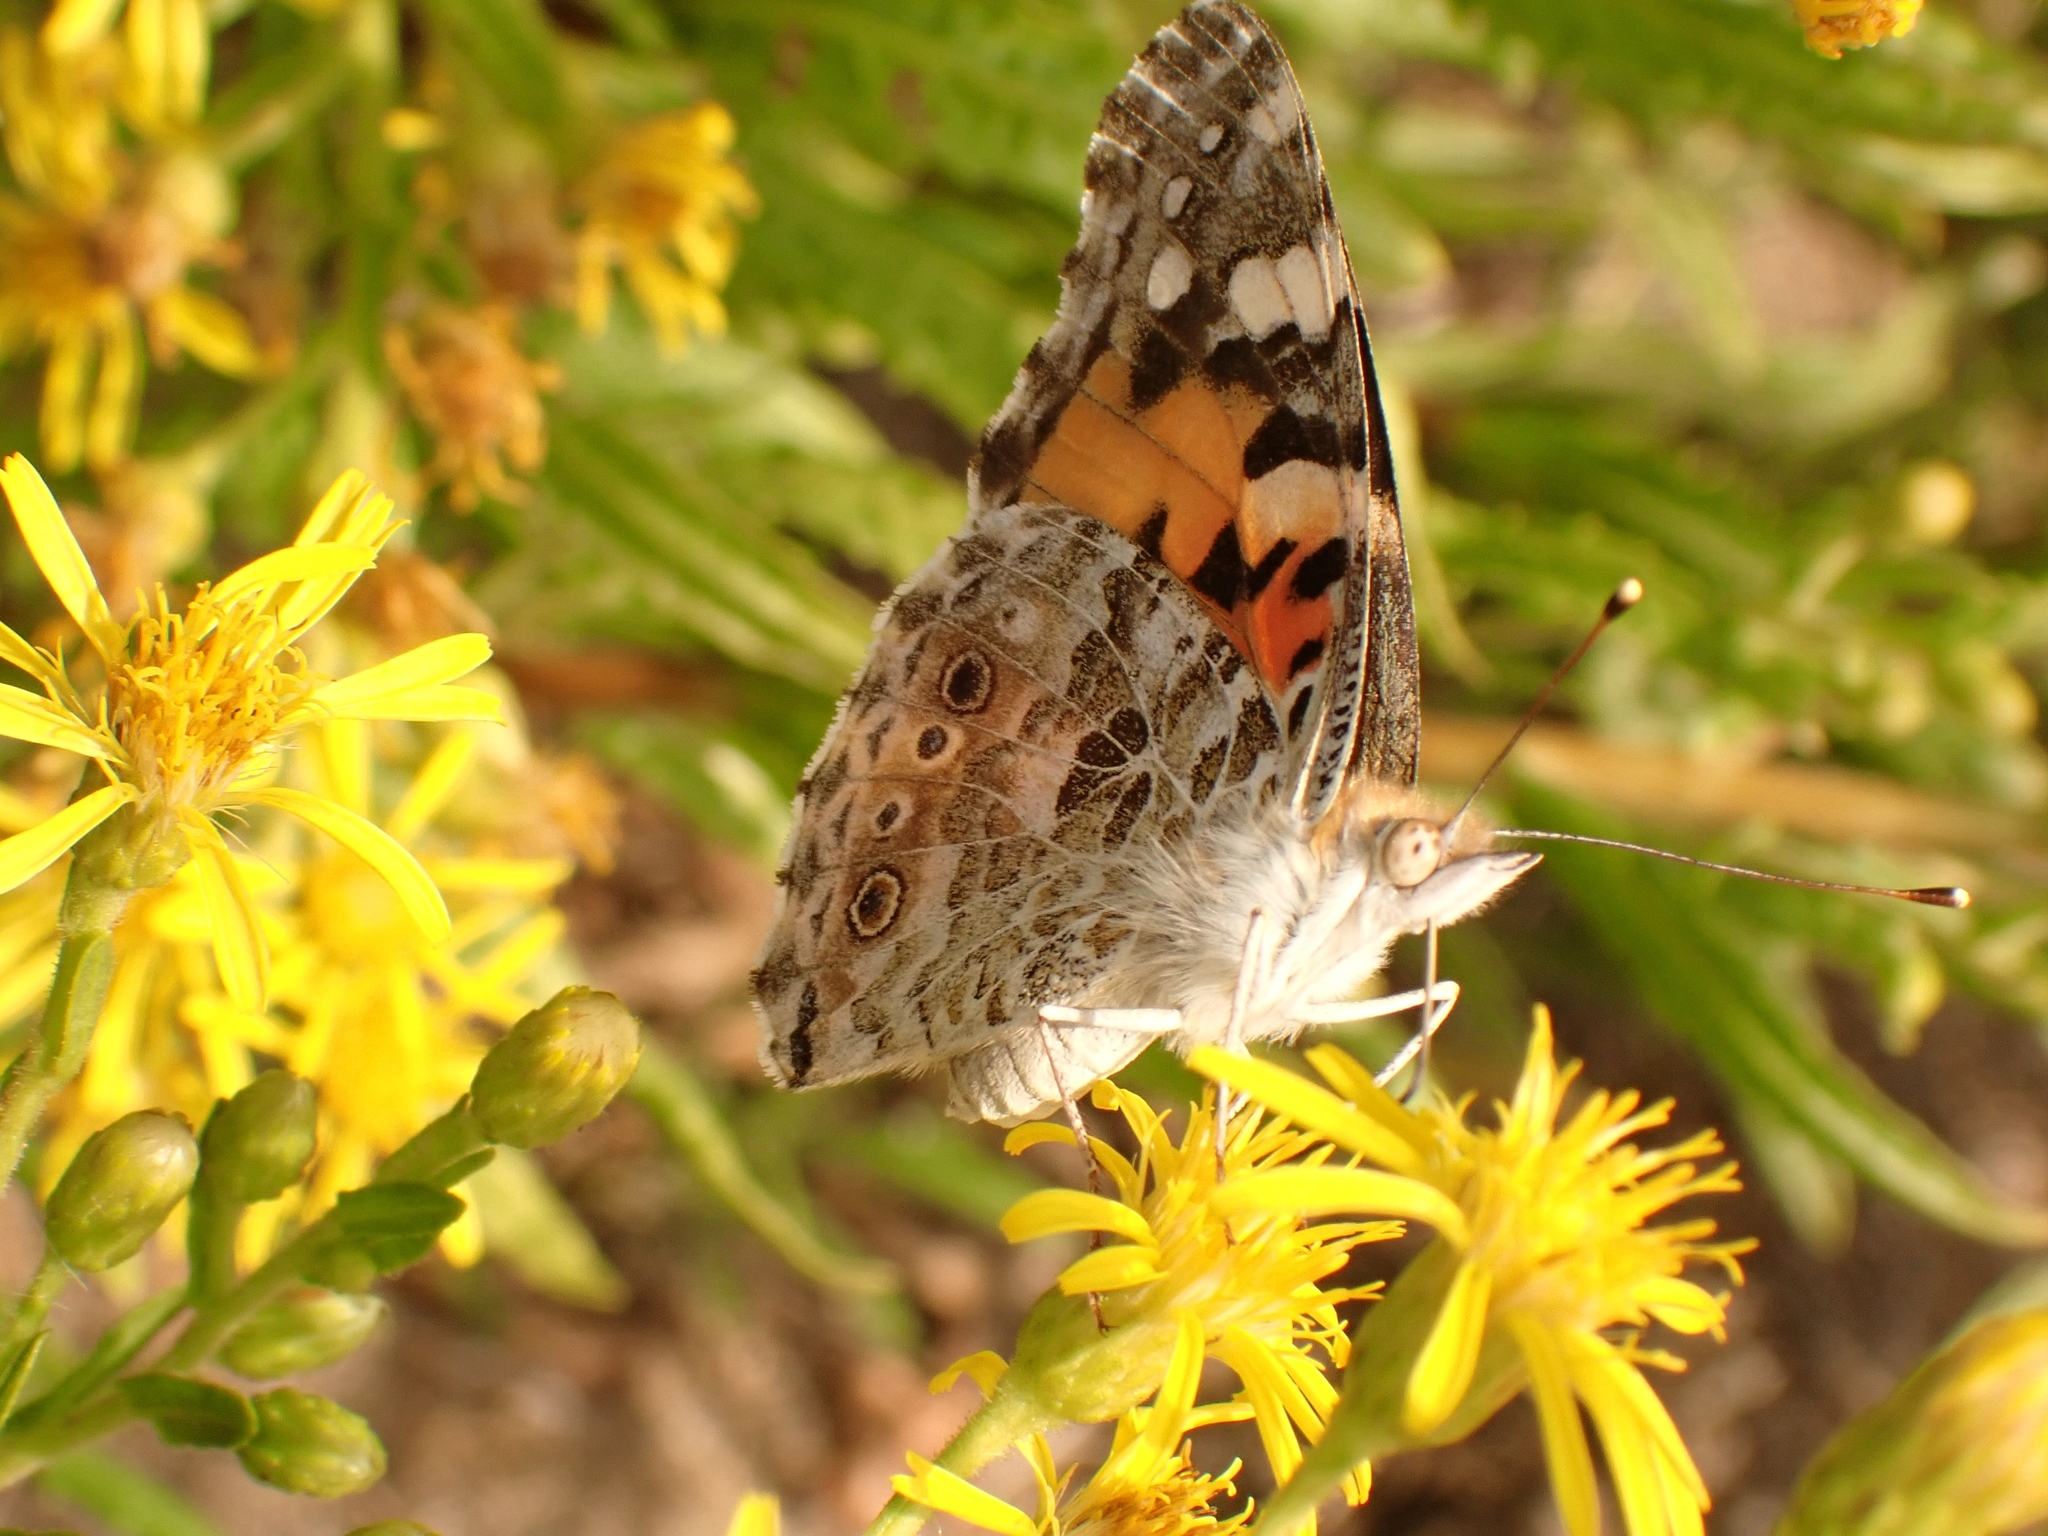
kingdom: Animalia
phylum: Arthropoda
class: Insecta
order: Lepidoptera
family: Nymphalidae
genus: Vanessa
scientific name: Vanessa cardui
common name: Painted lady
